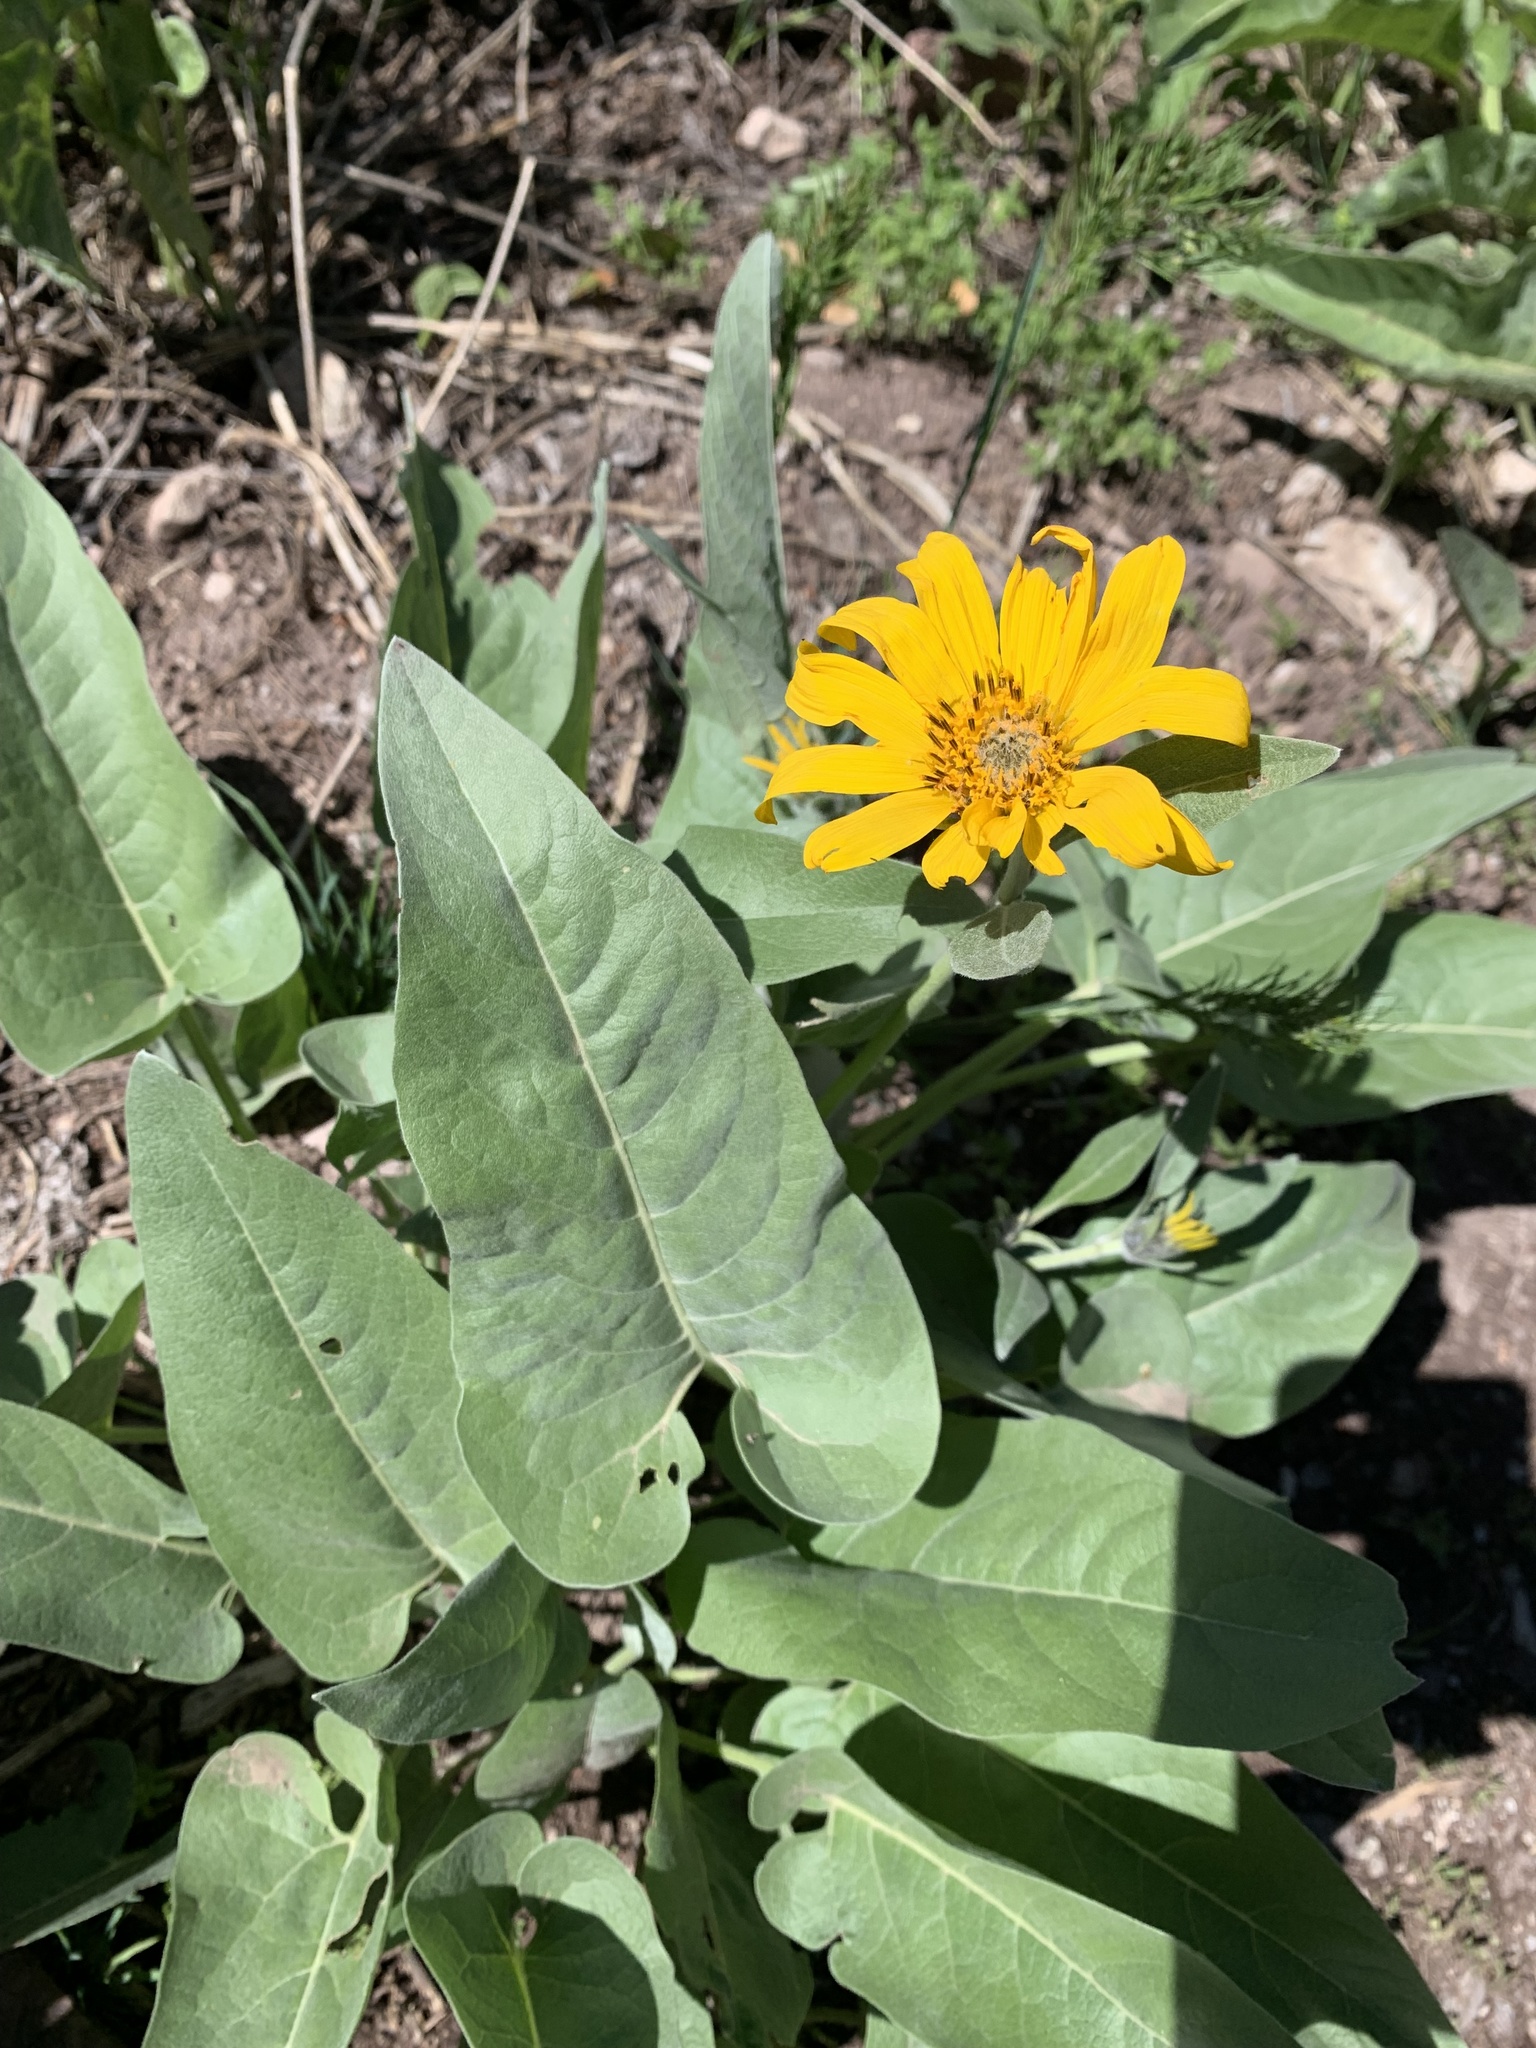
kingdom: Plantae
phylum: Tracheophyta
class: Magnoliopsida
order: Asterales
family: Asteraceae
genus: Wyethia
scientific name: Wyethia sagittata
